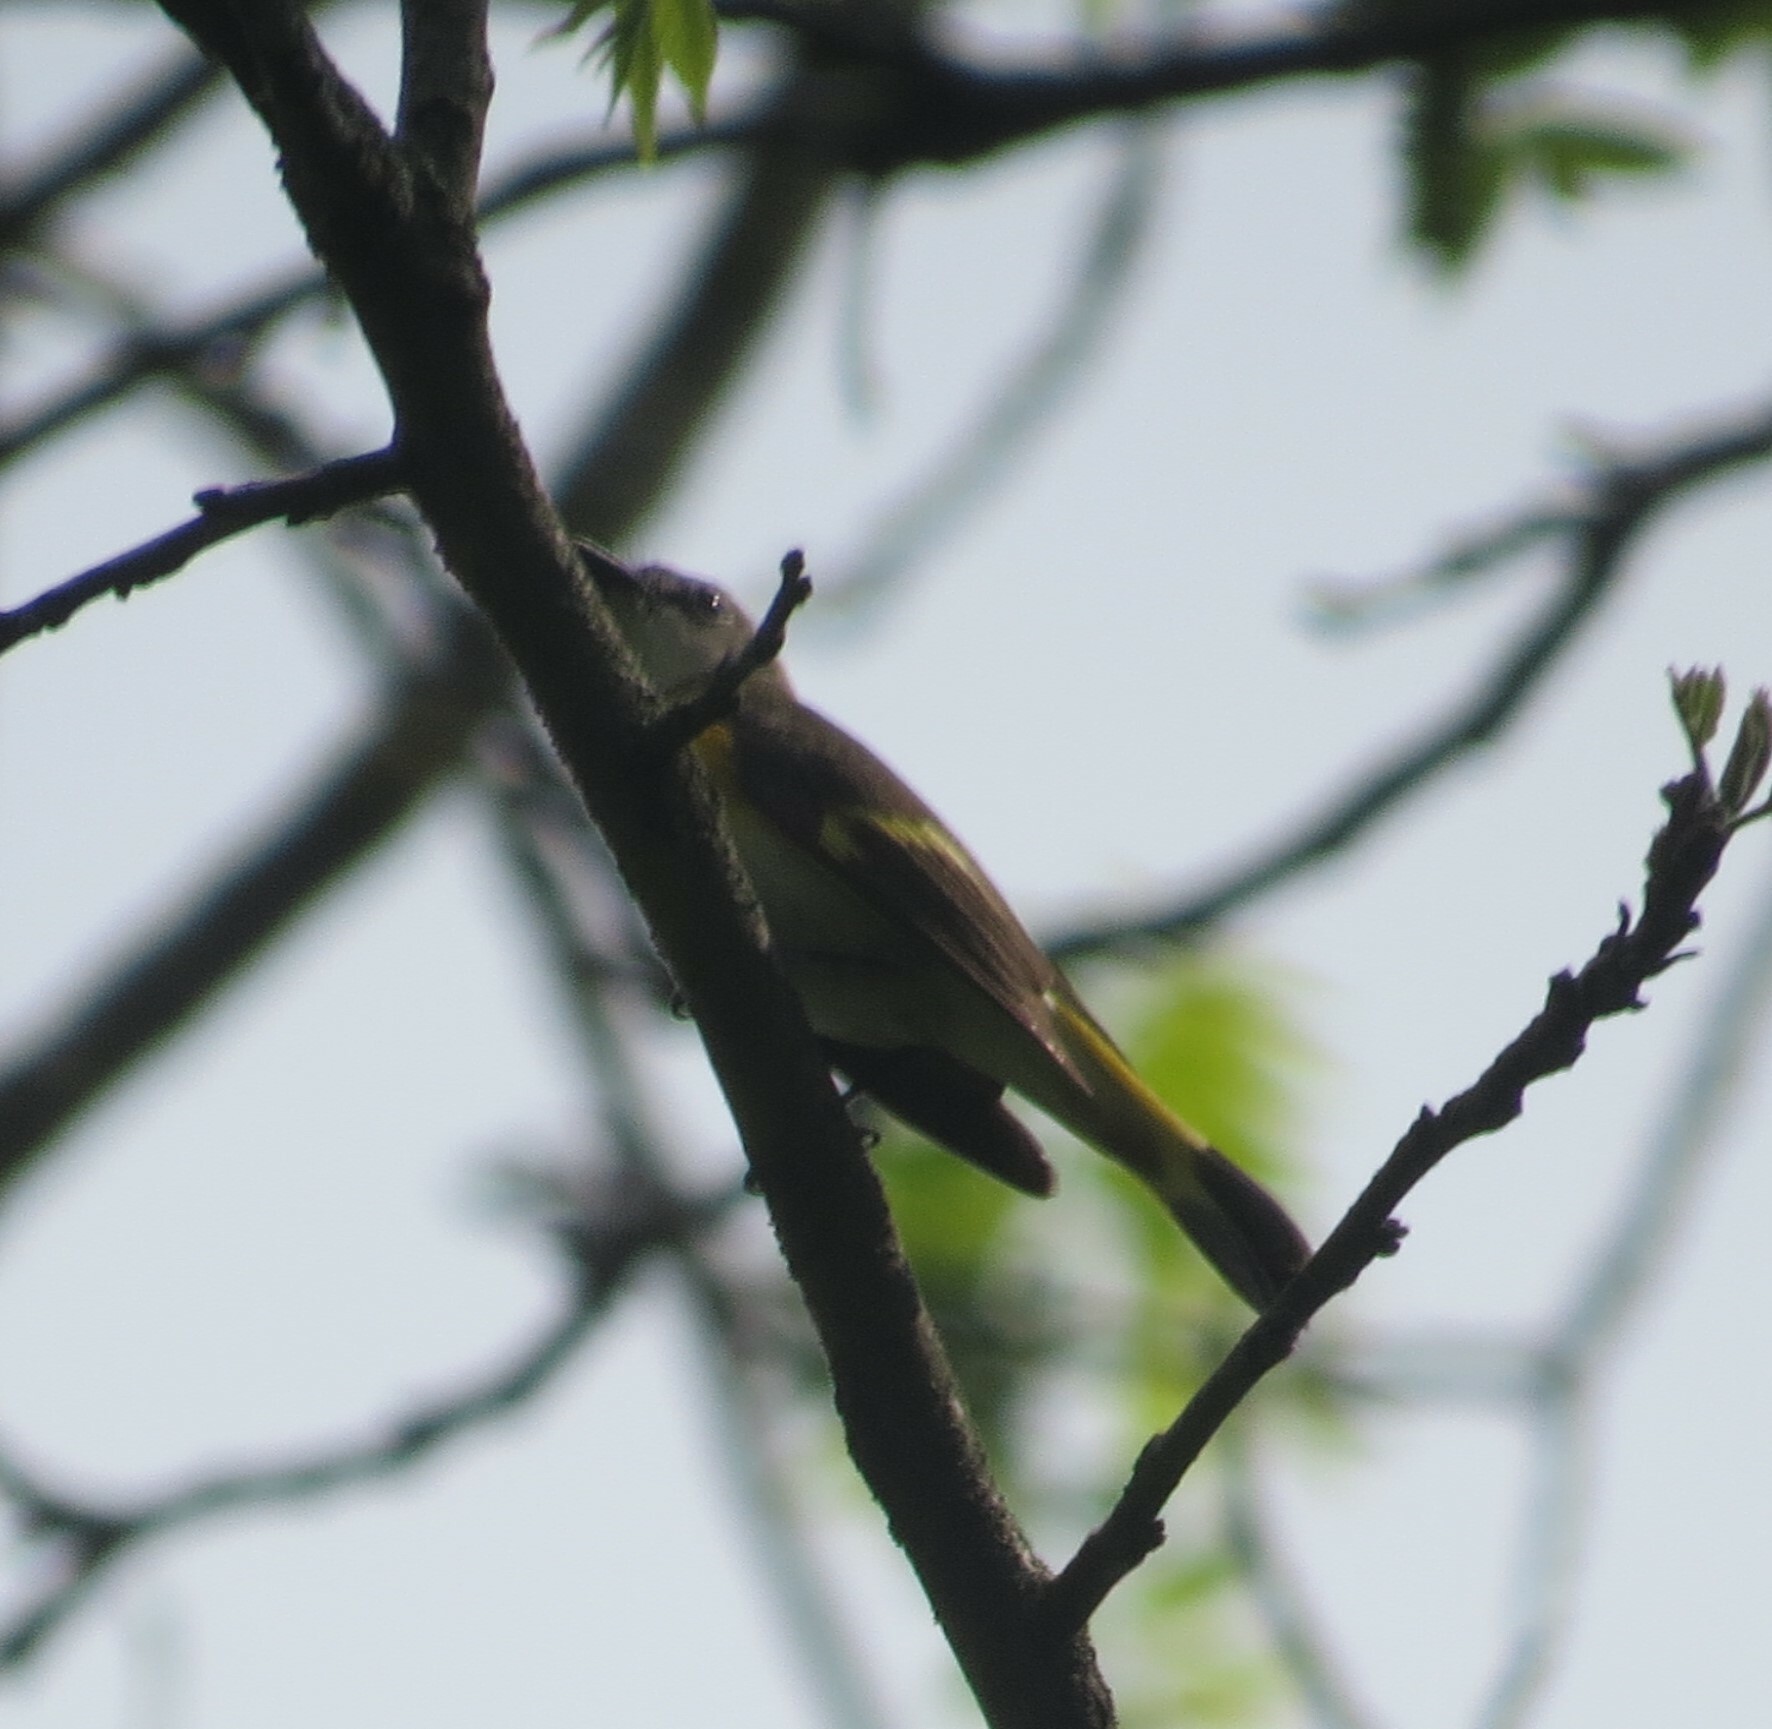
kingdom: Animalia
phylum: Chordata
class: Aves
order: Passeriformes
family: Parulidae
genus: Setophaga
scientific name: Setophaga ruticilla
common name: American redstart
